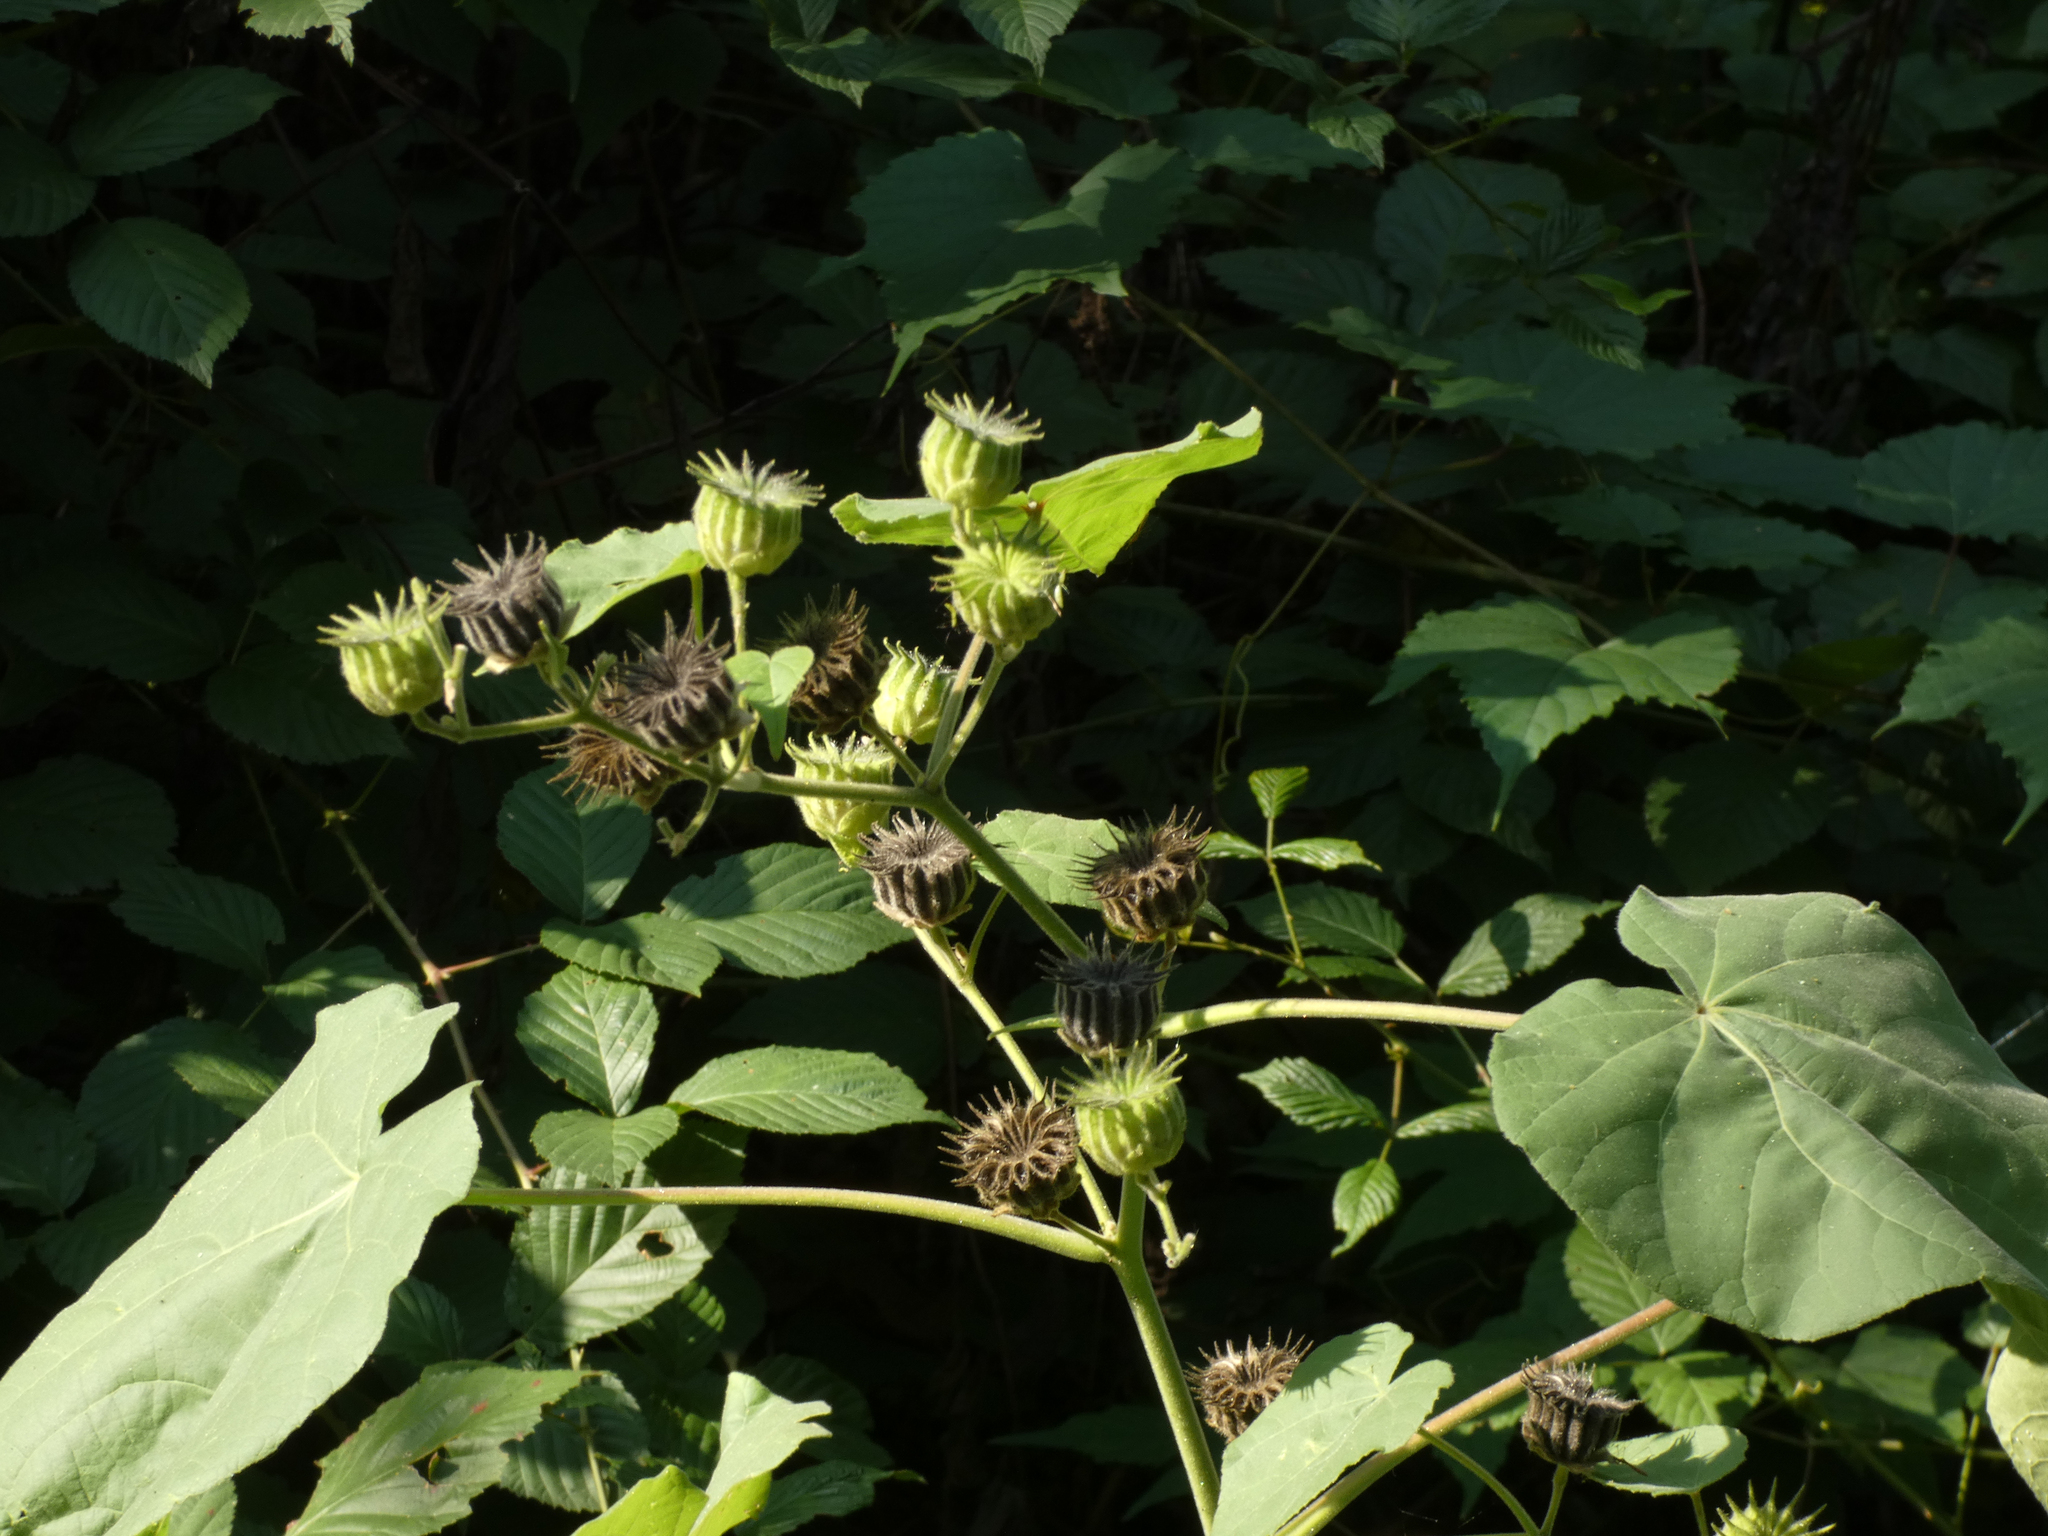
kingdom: Plantae
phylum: Tracheophyta
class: Magnoliopsida
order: Malvales
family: Malvaceae
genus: Abutilon
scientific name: Abutilon theophrasti
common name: Velvetleaf
